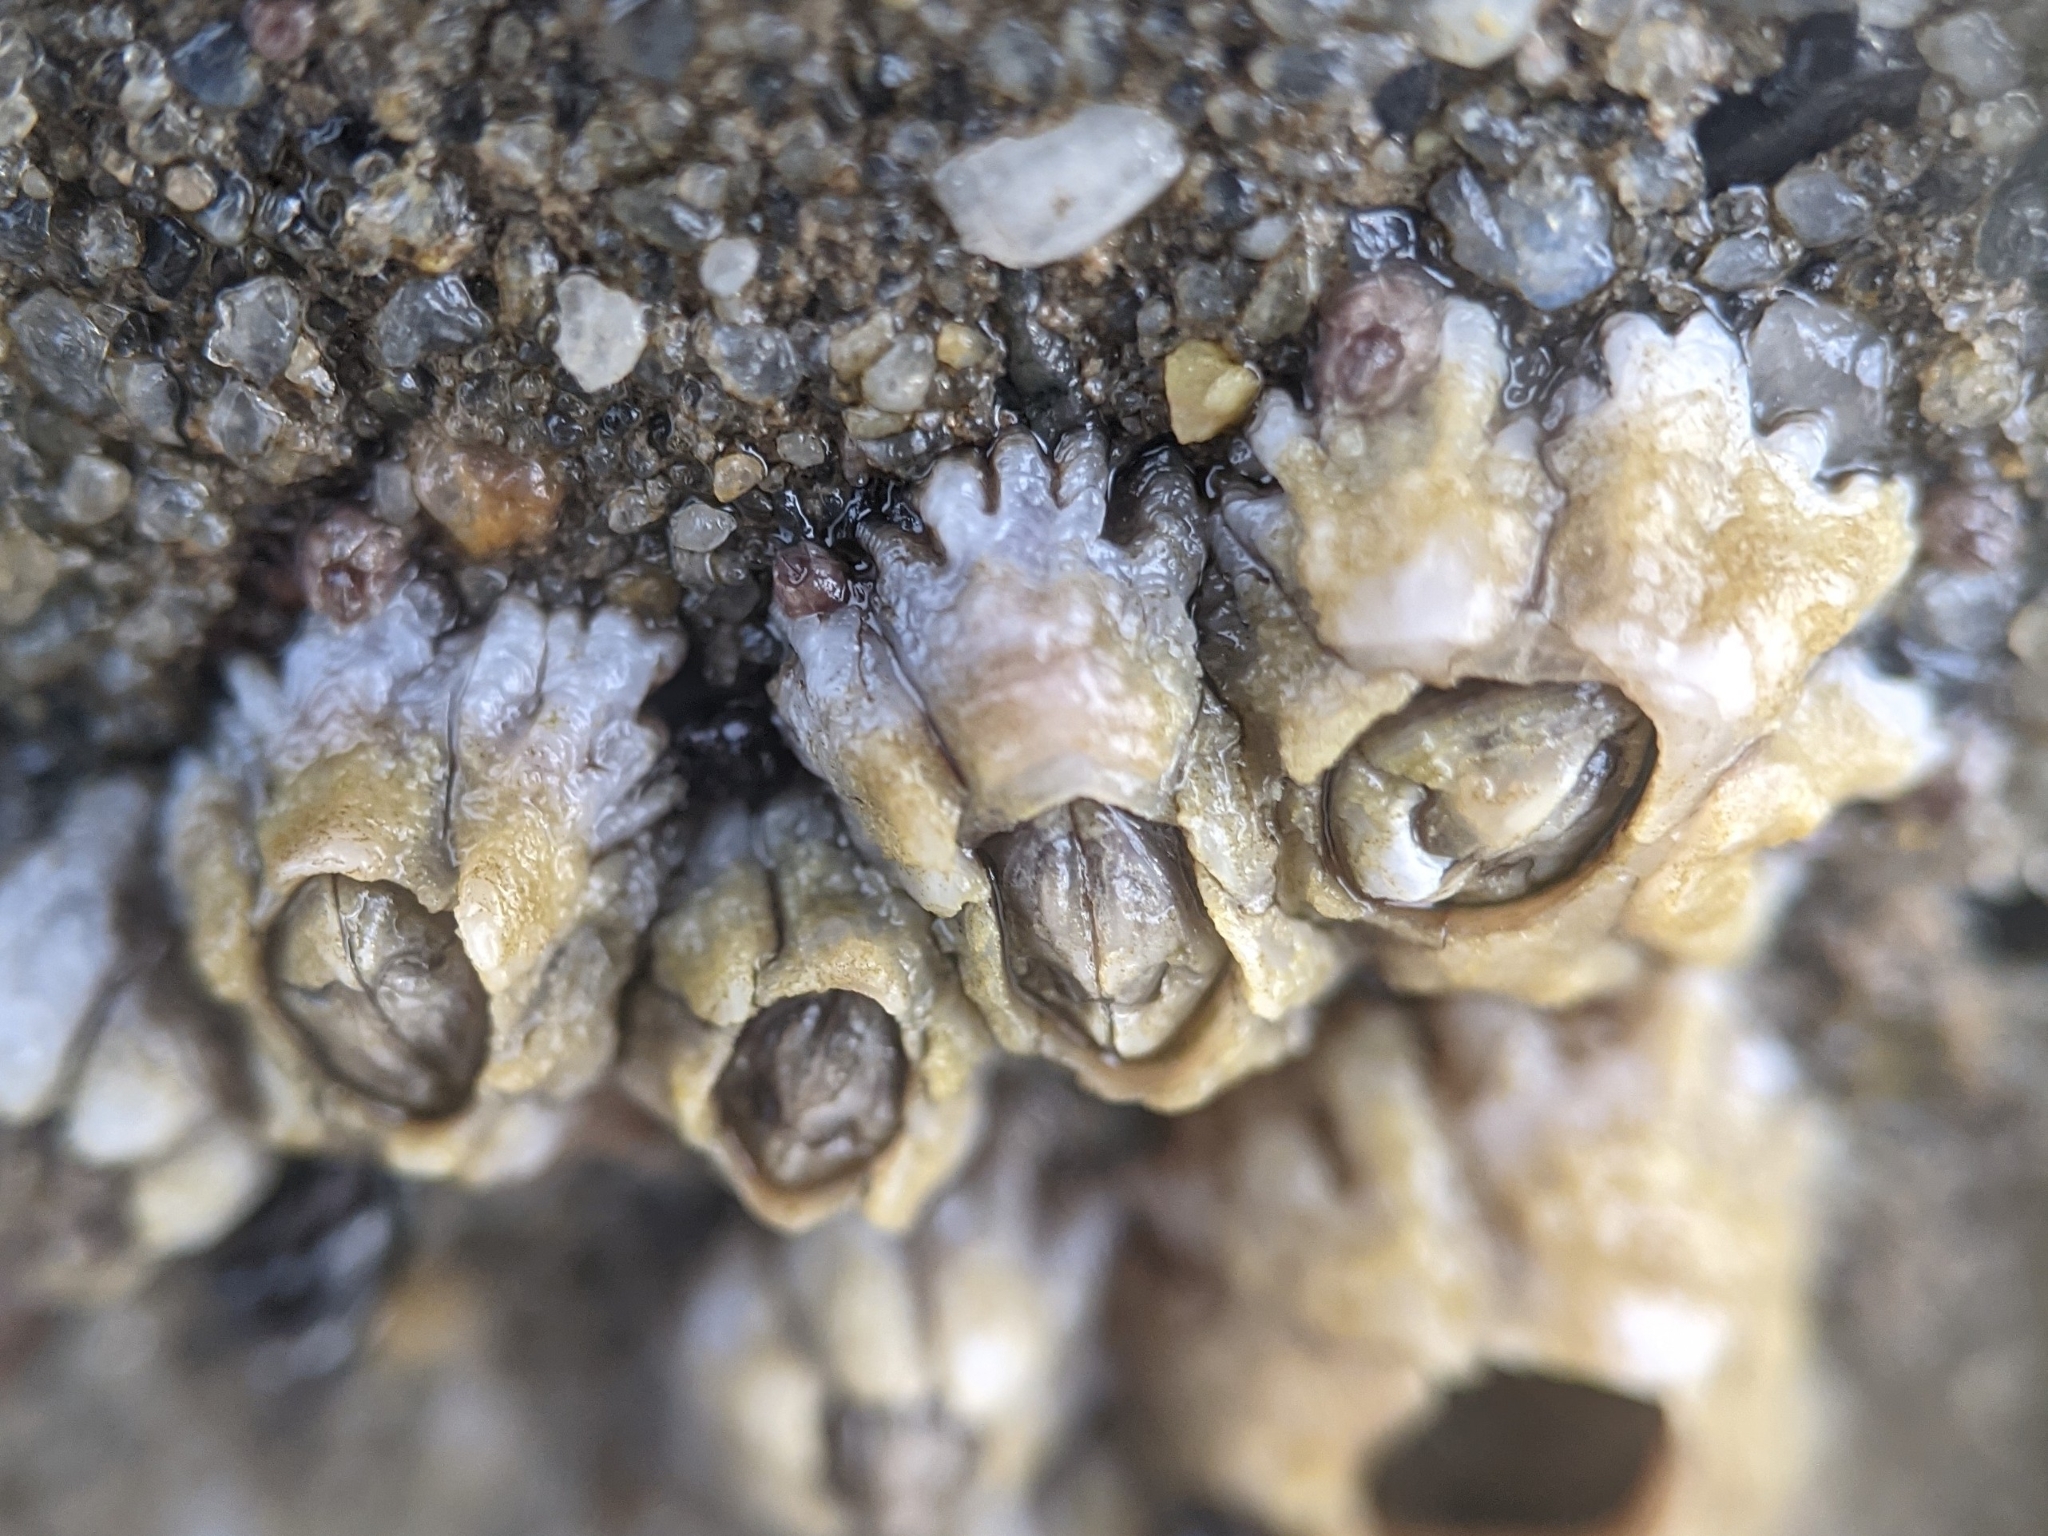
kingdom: Animalia
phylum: Arthropoda
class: Maxillopoda
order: Sessilia
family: Chthamalidae
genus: Chthamalus
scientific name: Chthamalus fragilis
